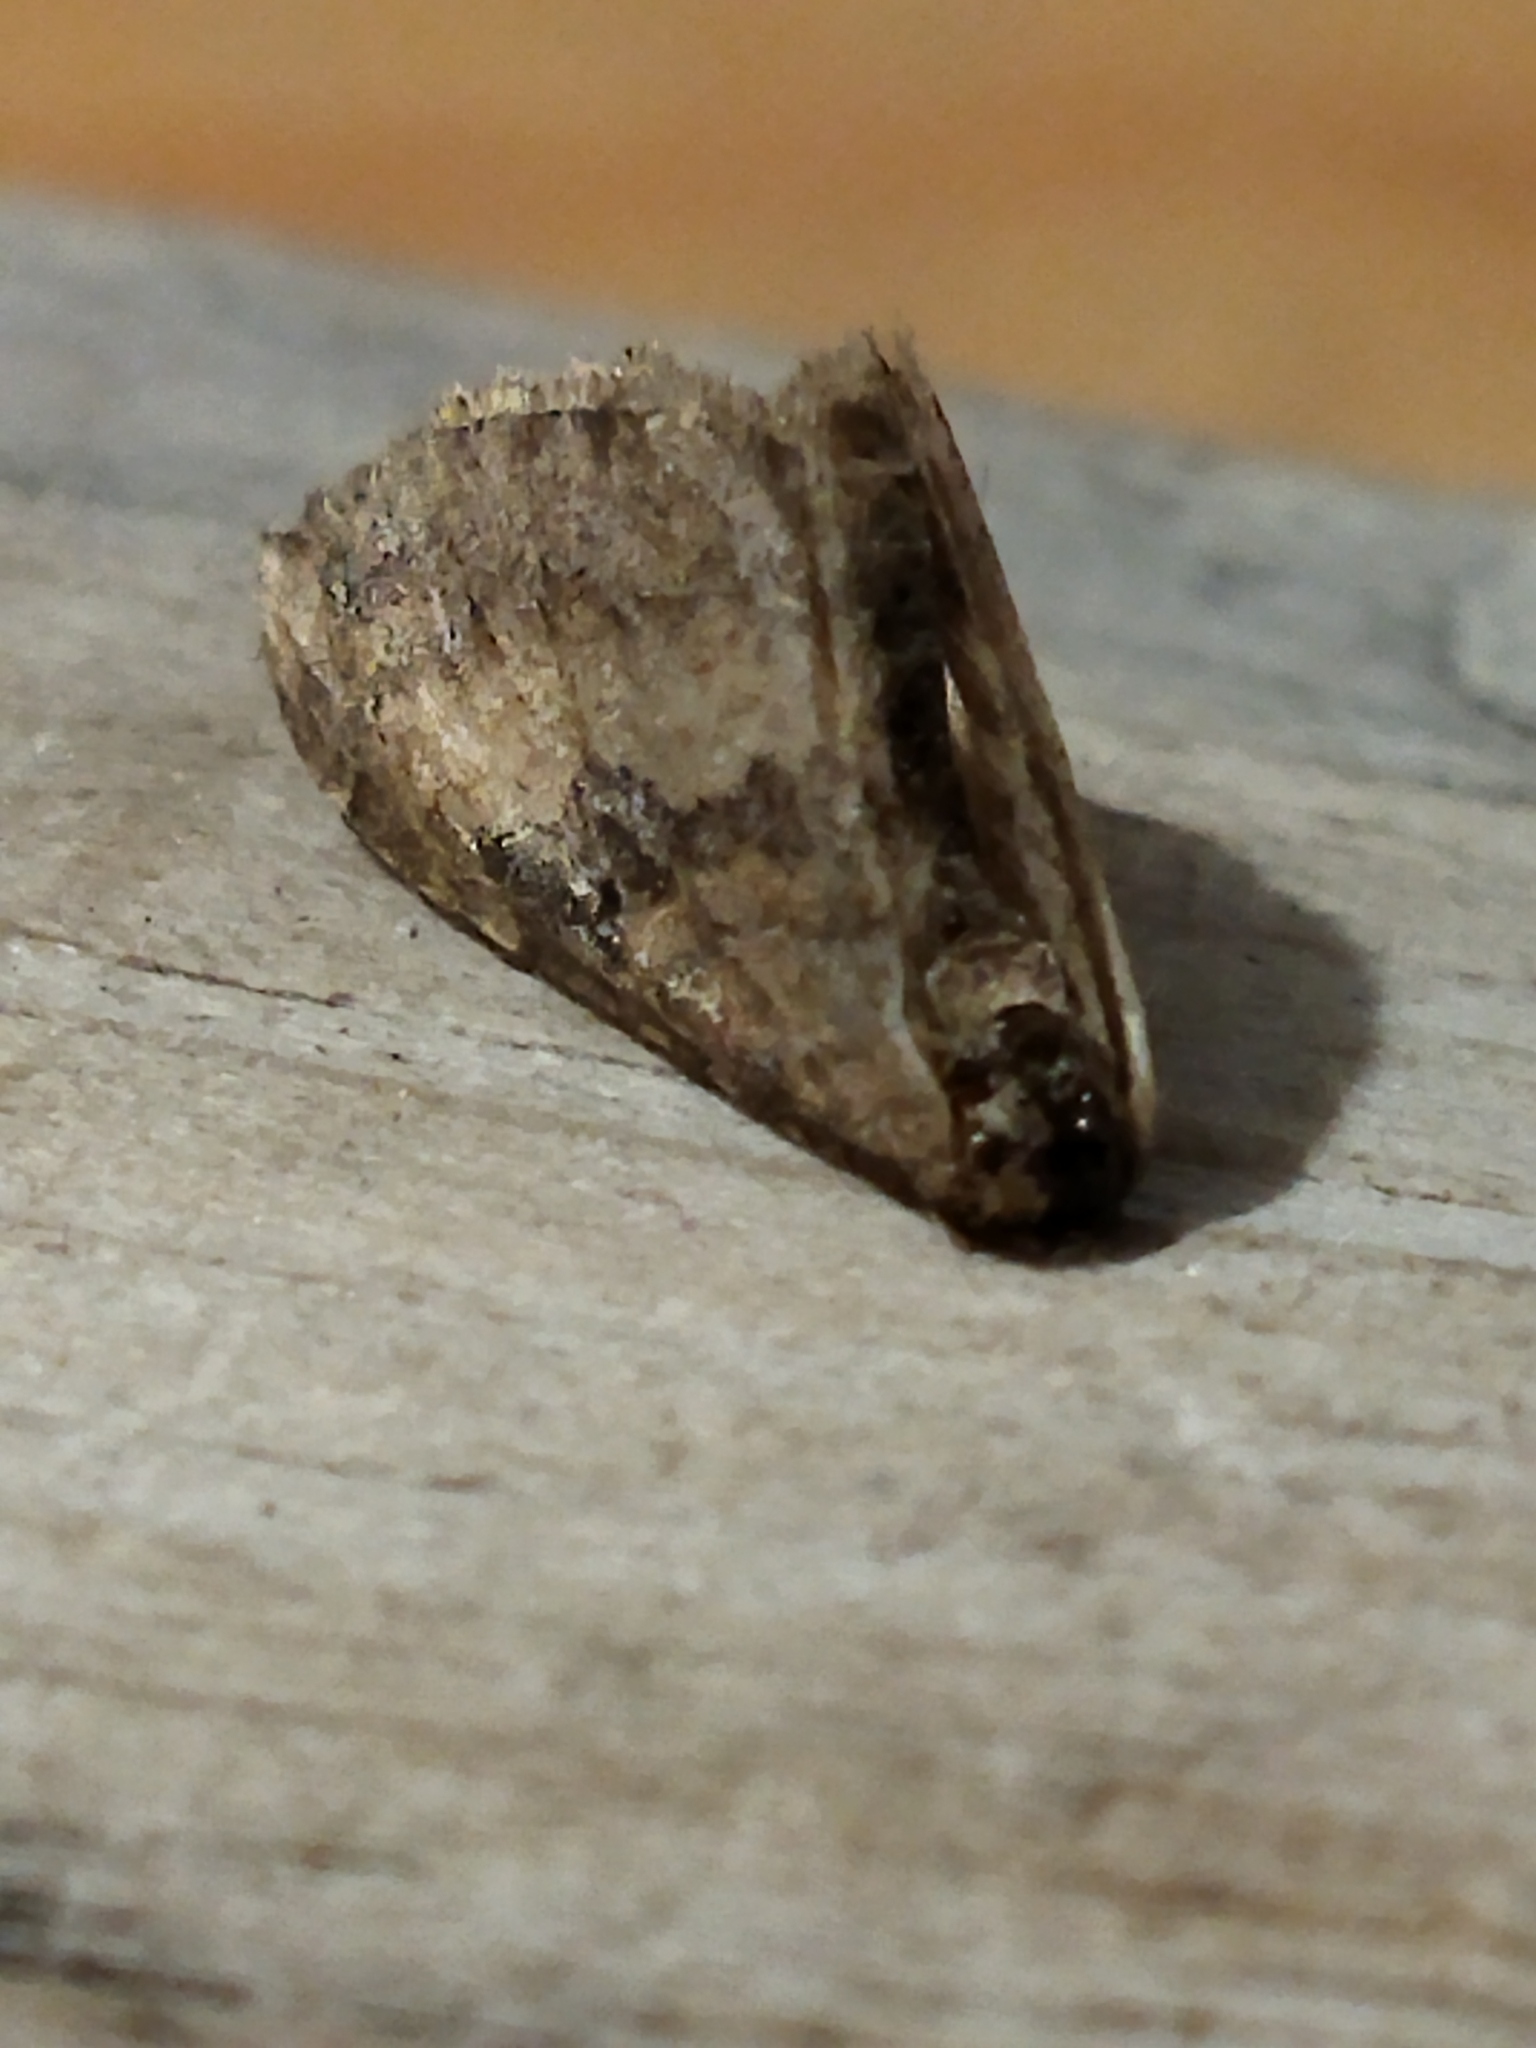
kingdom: Animalia
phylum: Arthropoda
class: Insecta
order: Lepidoptera
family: Geometridae
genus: Orthonama
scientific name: Orthonama obstipata
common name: The gem
